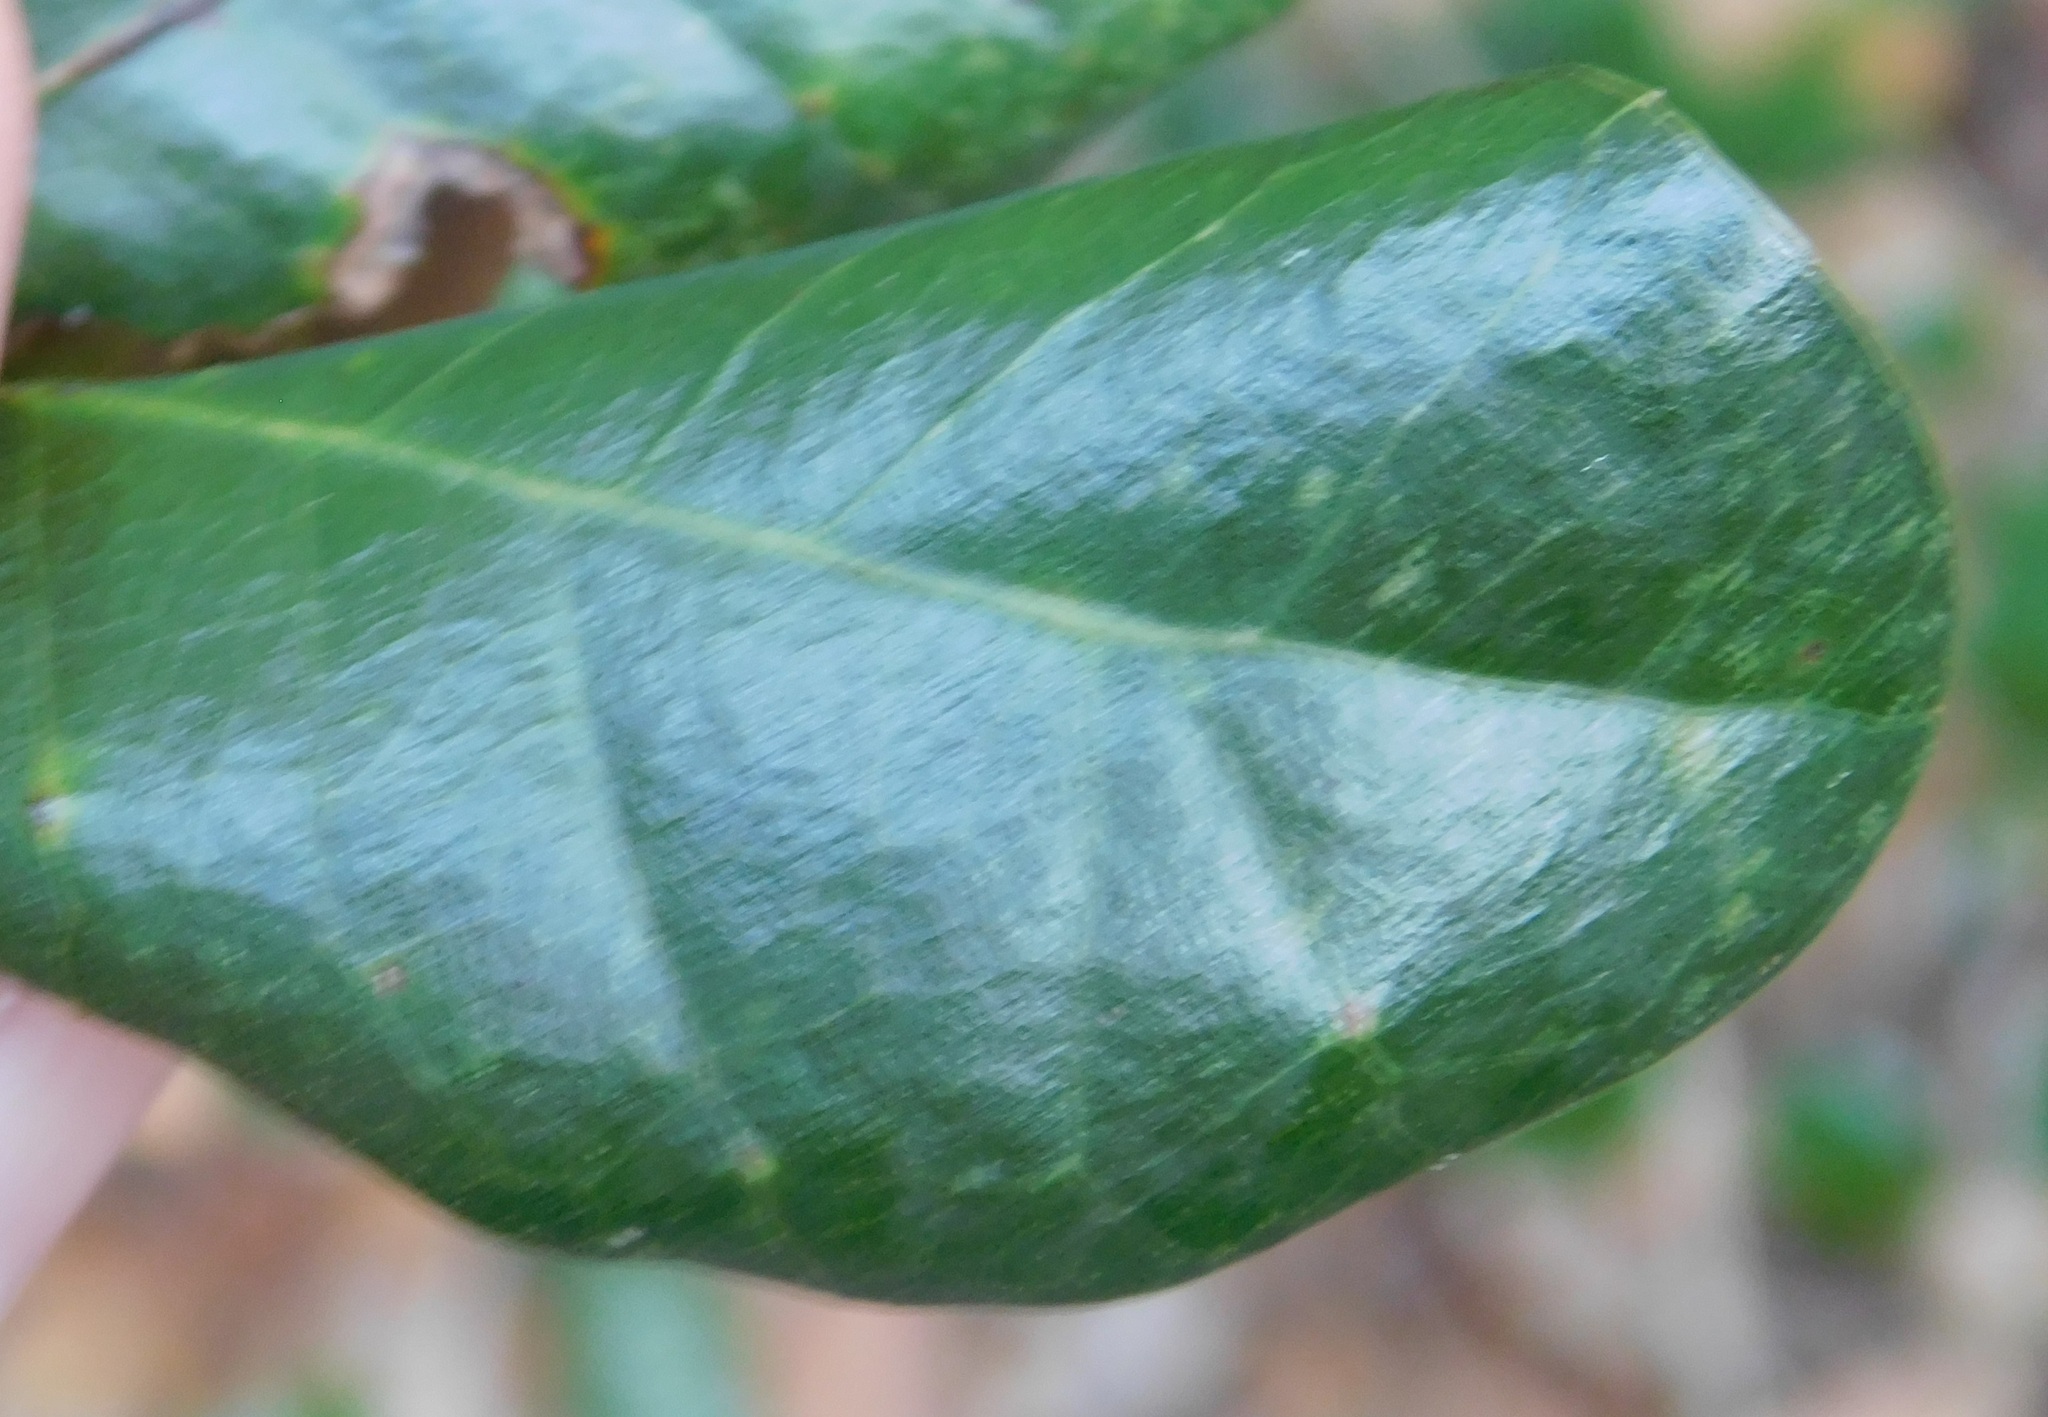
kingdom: Animalia
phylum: Arthropoda
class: Insecta
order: Hymenoptera
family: Cynipidae
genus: Belonocnema
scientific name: Belonocnema treatae
